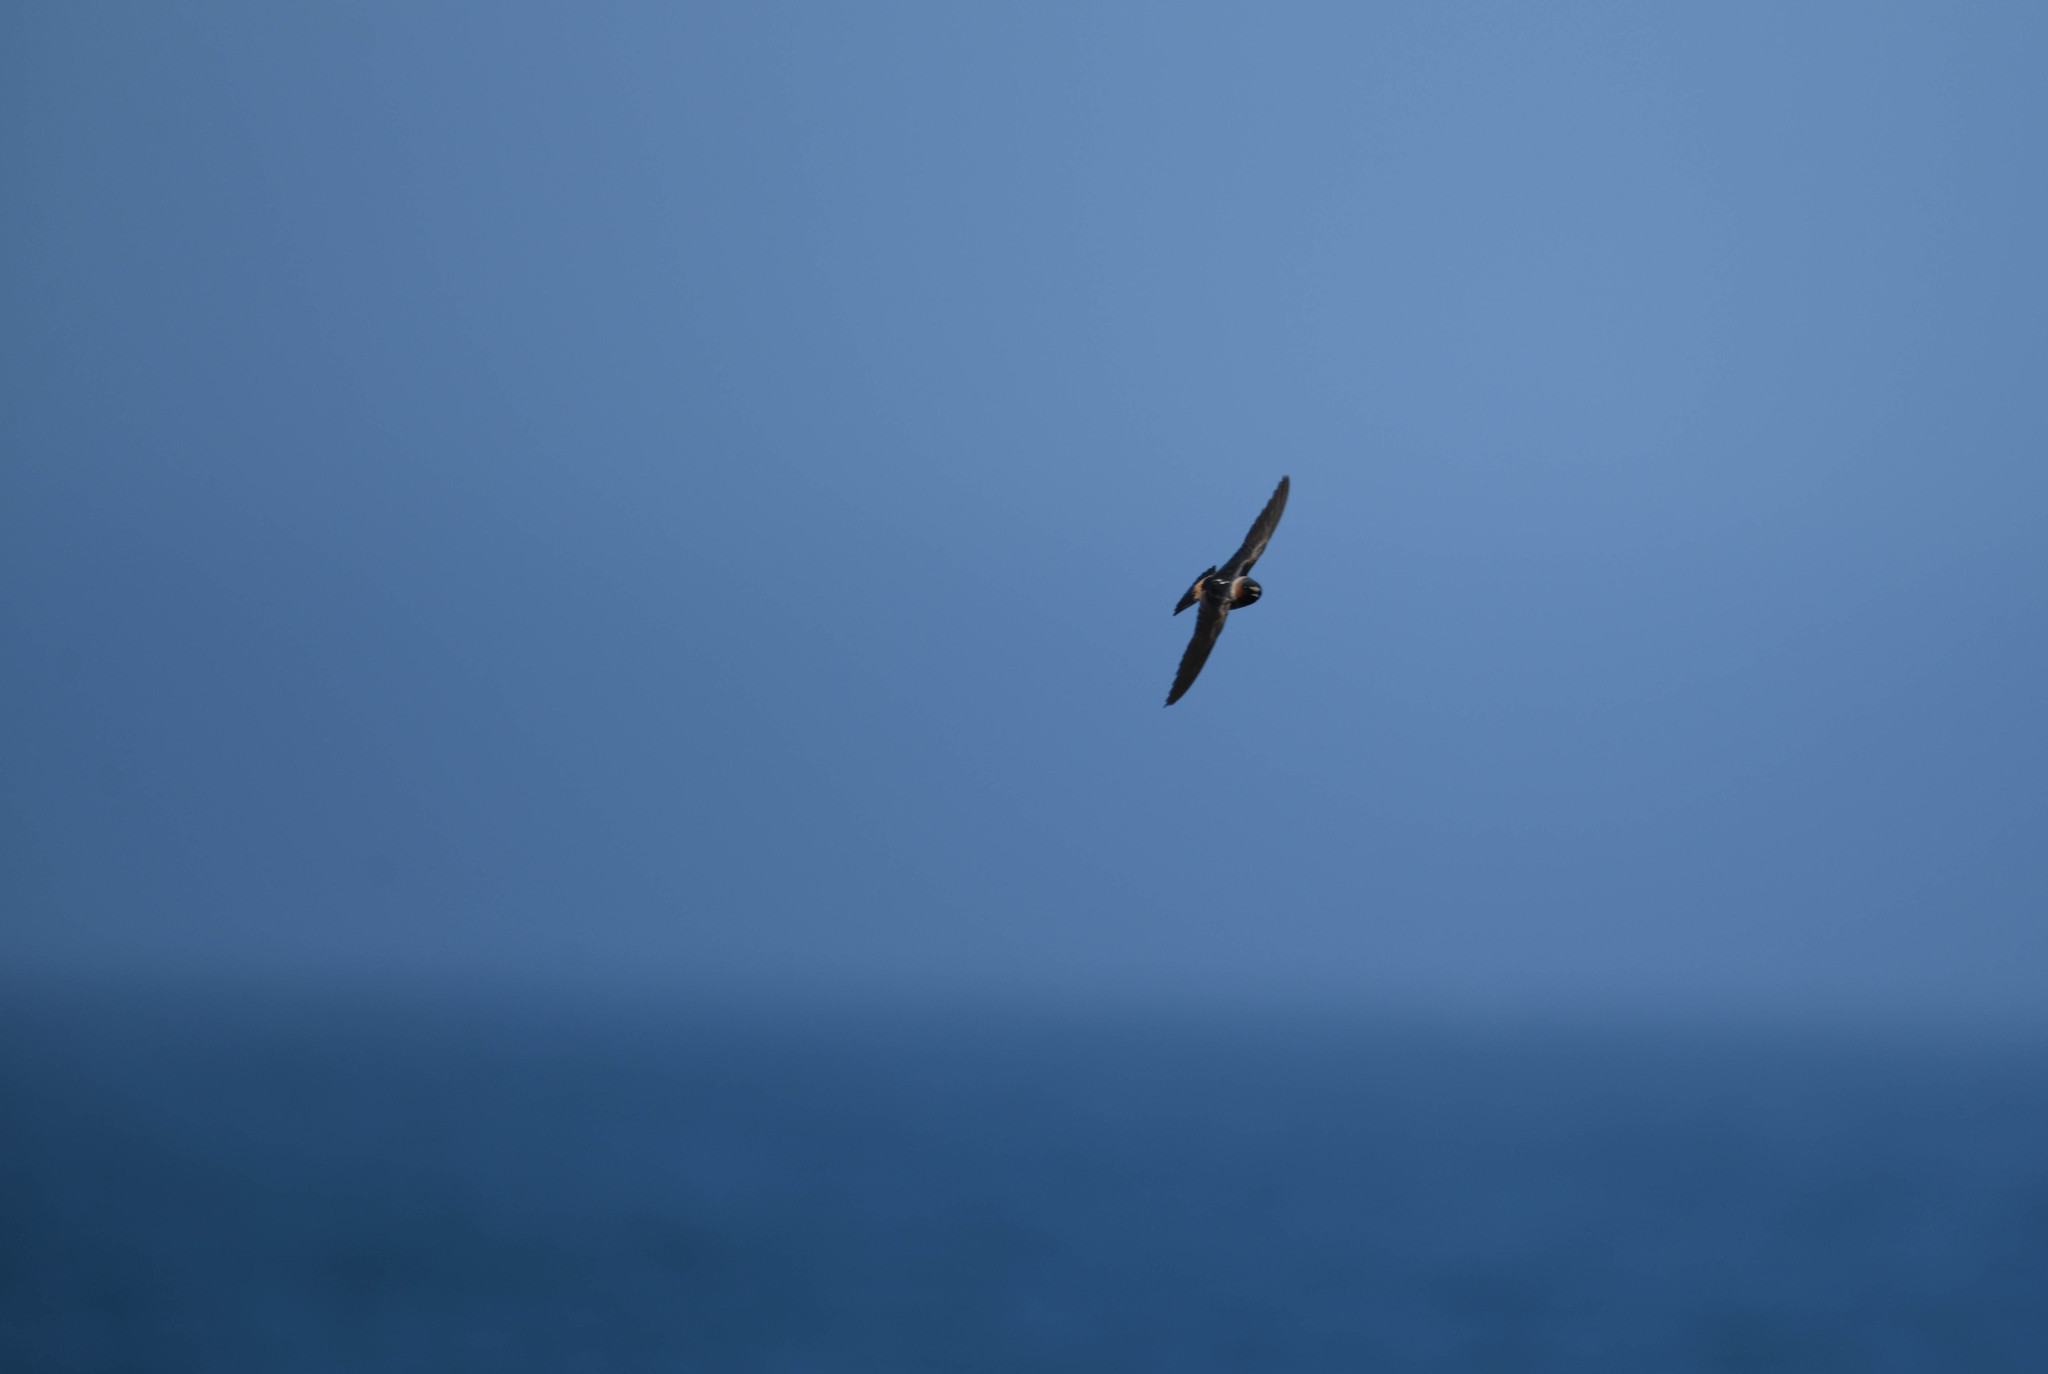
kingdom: Animalia
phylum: Chordata
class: Aves
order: Passeriformes
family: Hirundinidae
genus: Petrochelidon
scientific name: Petrochelidon pyrrhonota
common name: American cliff swallow
